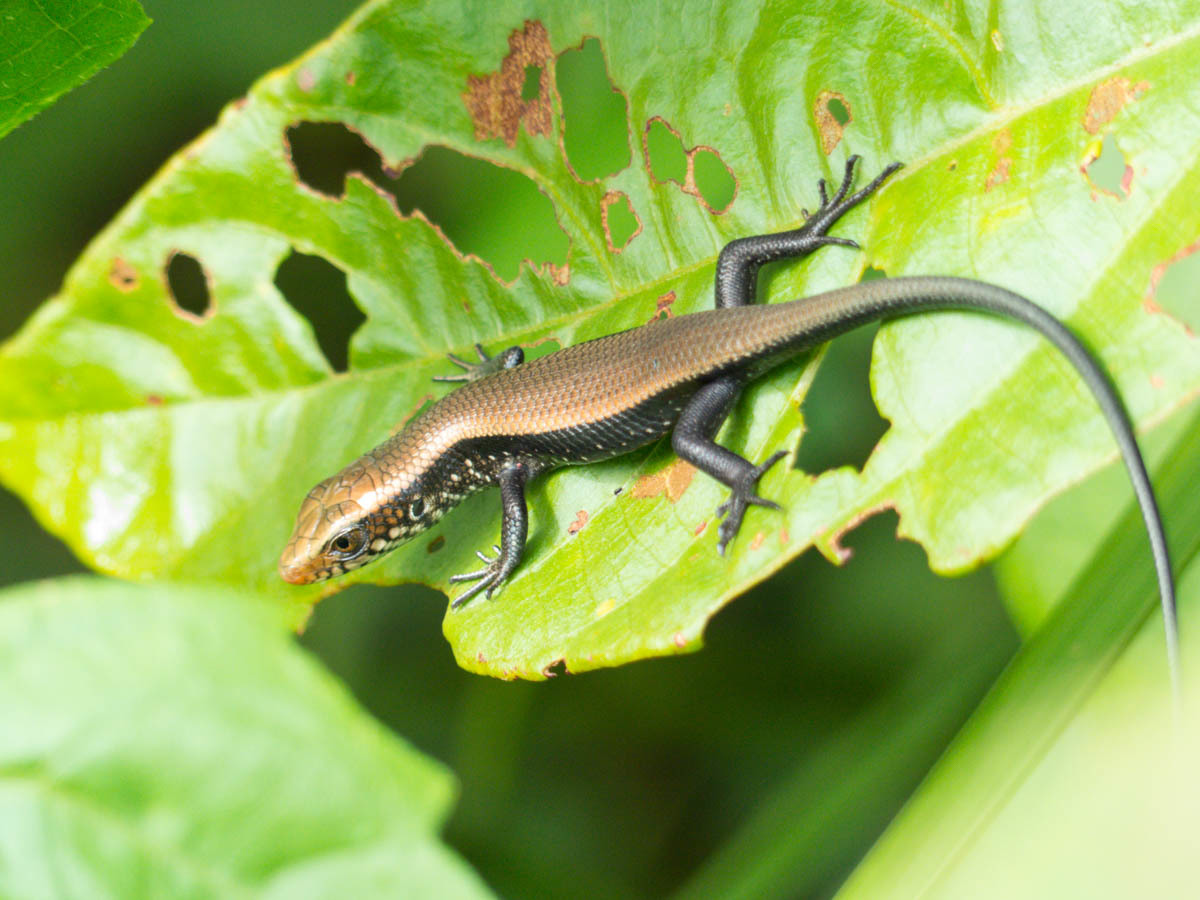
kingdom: Animalia
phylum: Chordata
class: Squamata
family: Scincidae
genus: Eutropis
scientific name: Eutropis multifasciata
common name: Common mabuya
